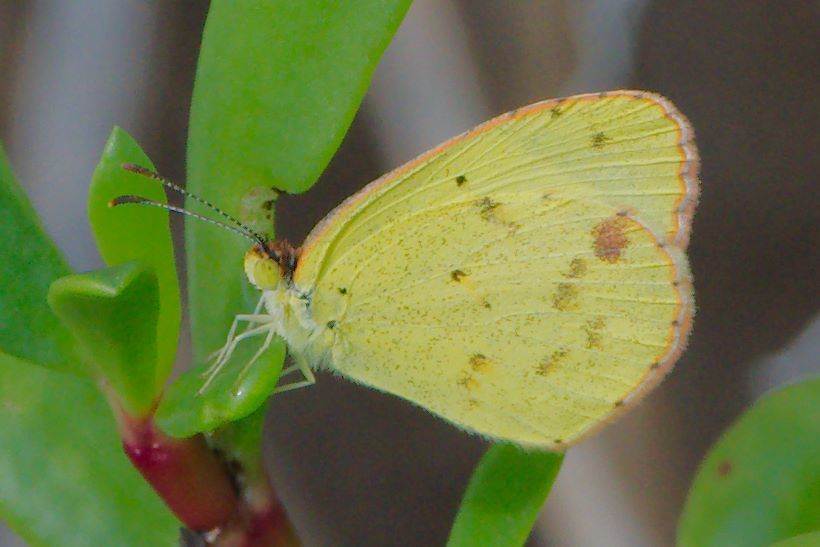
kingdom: Animalia
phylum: Arthropoda
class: Insecta
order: Lepidoptera
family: Pieridae
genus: Pyrisitia
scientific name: Pyrisitia lisa
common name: Little yellow
